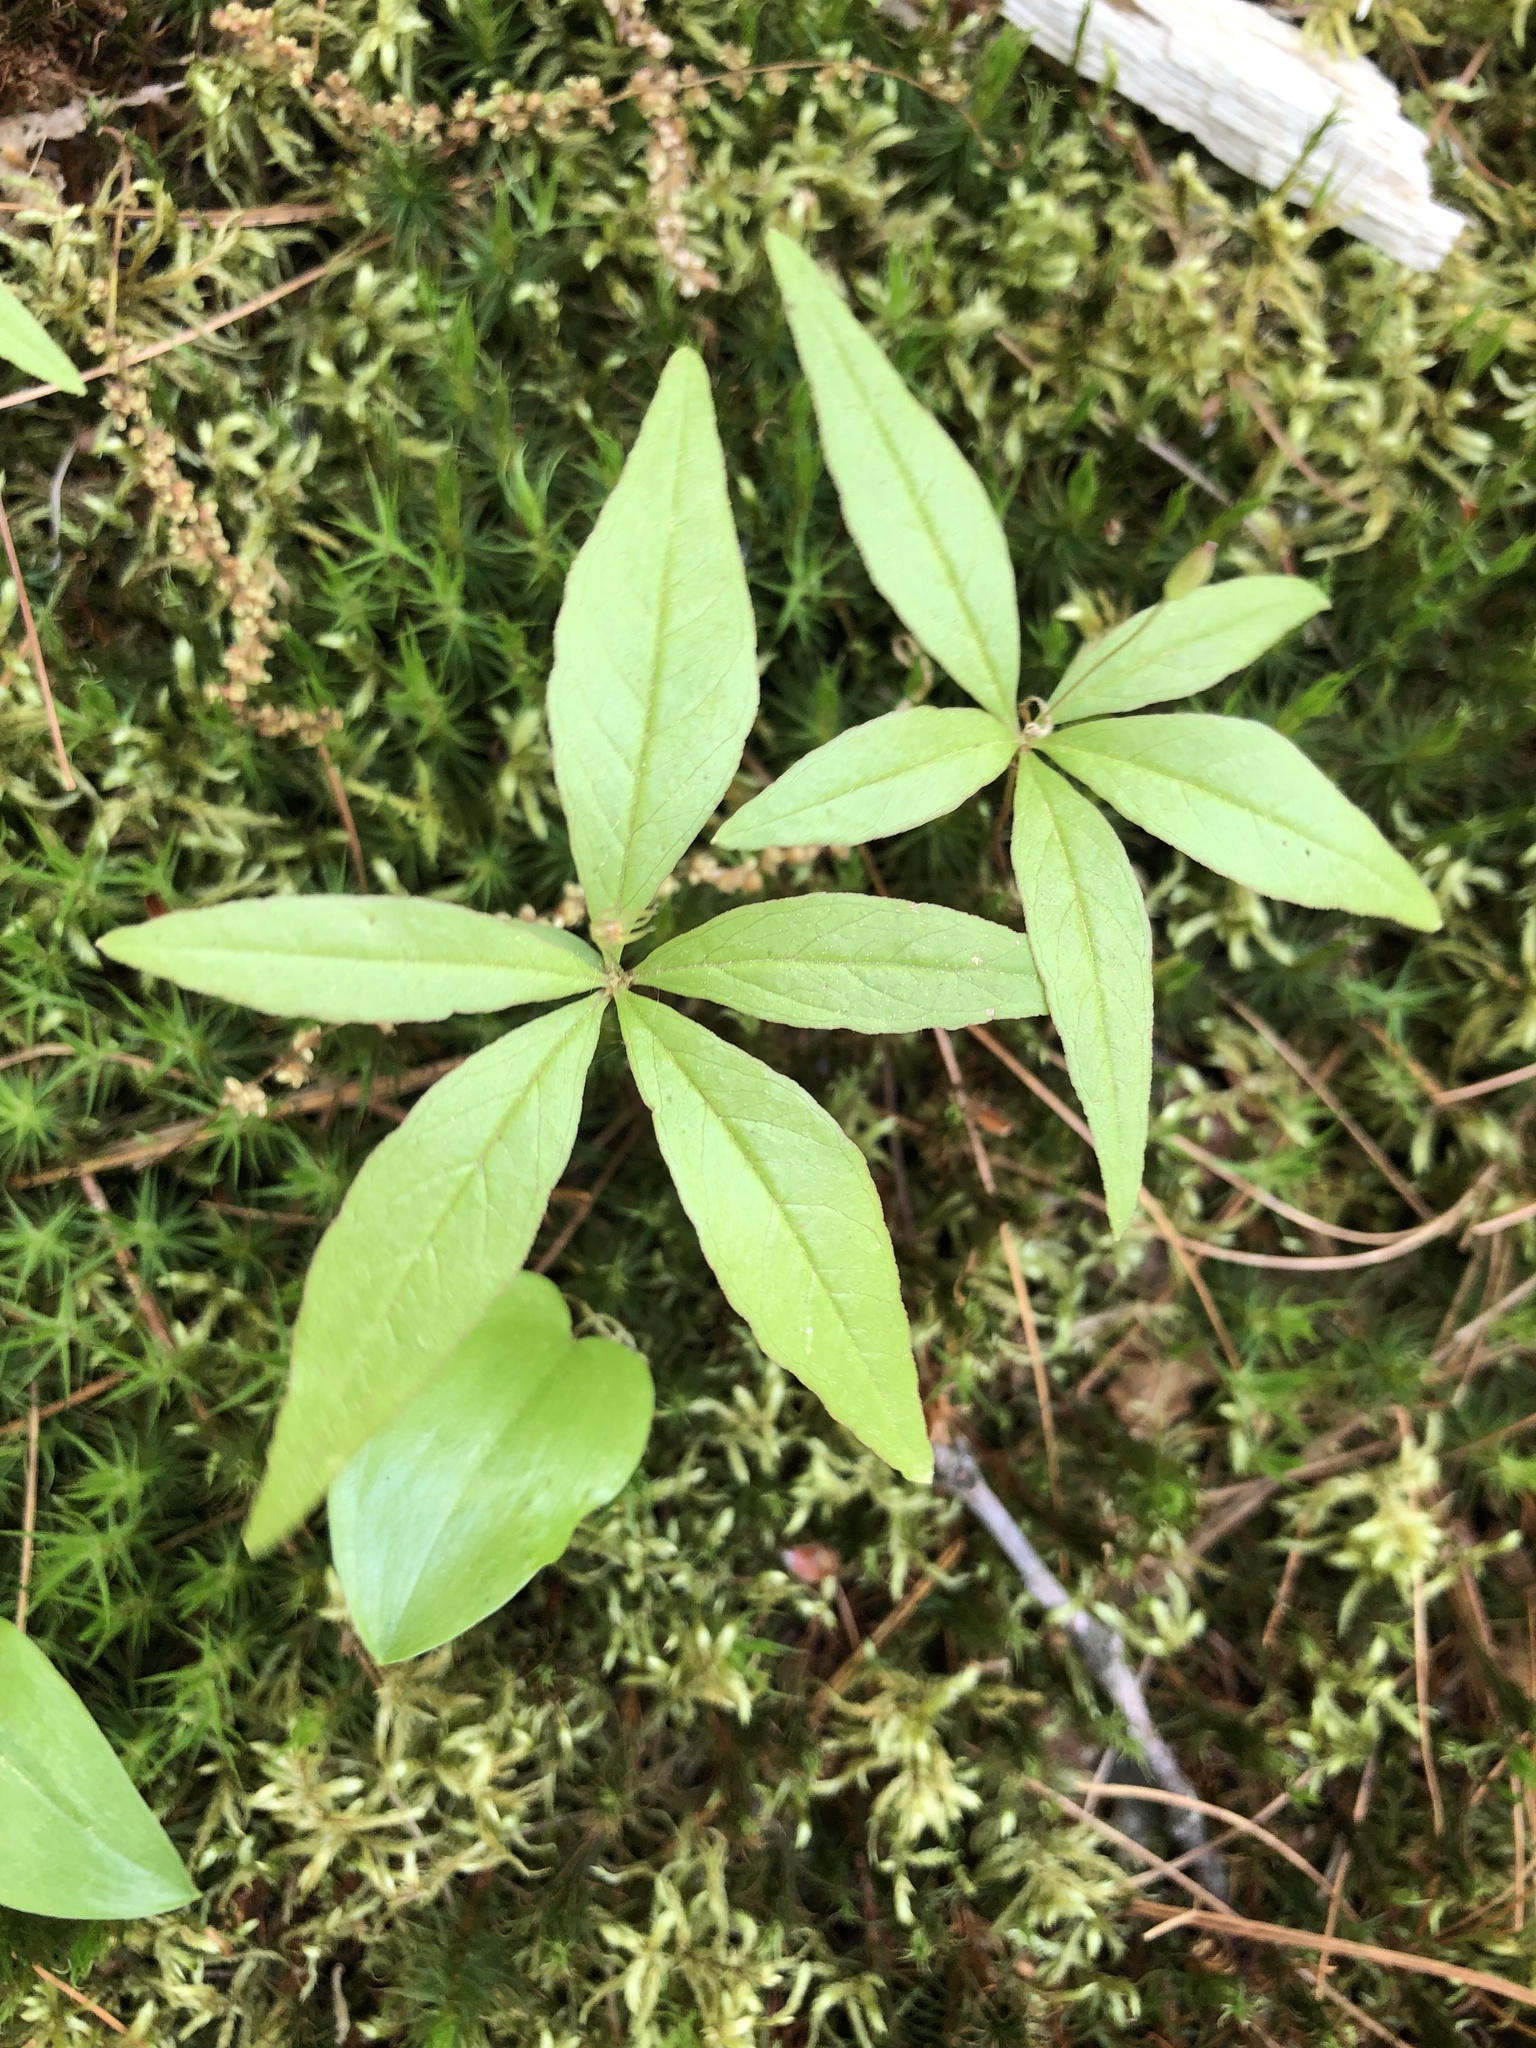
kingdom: Plantae
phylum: Tracheophyta
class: Magnoliopsida
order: Ericales
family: Primulaceae
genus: Lysimachia
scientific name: Lysimachia borealis
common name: American starflower
